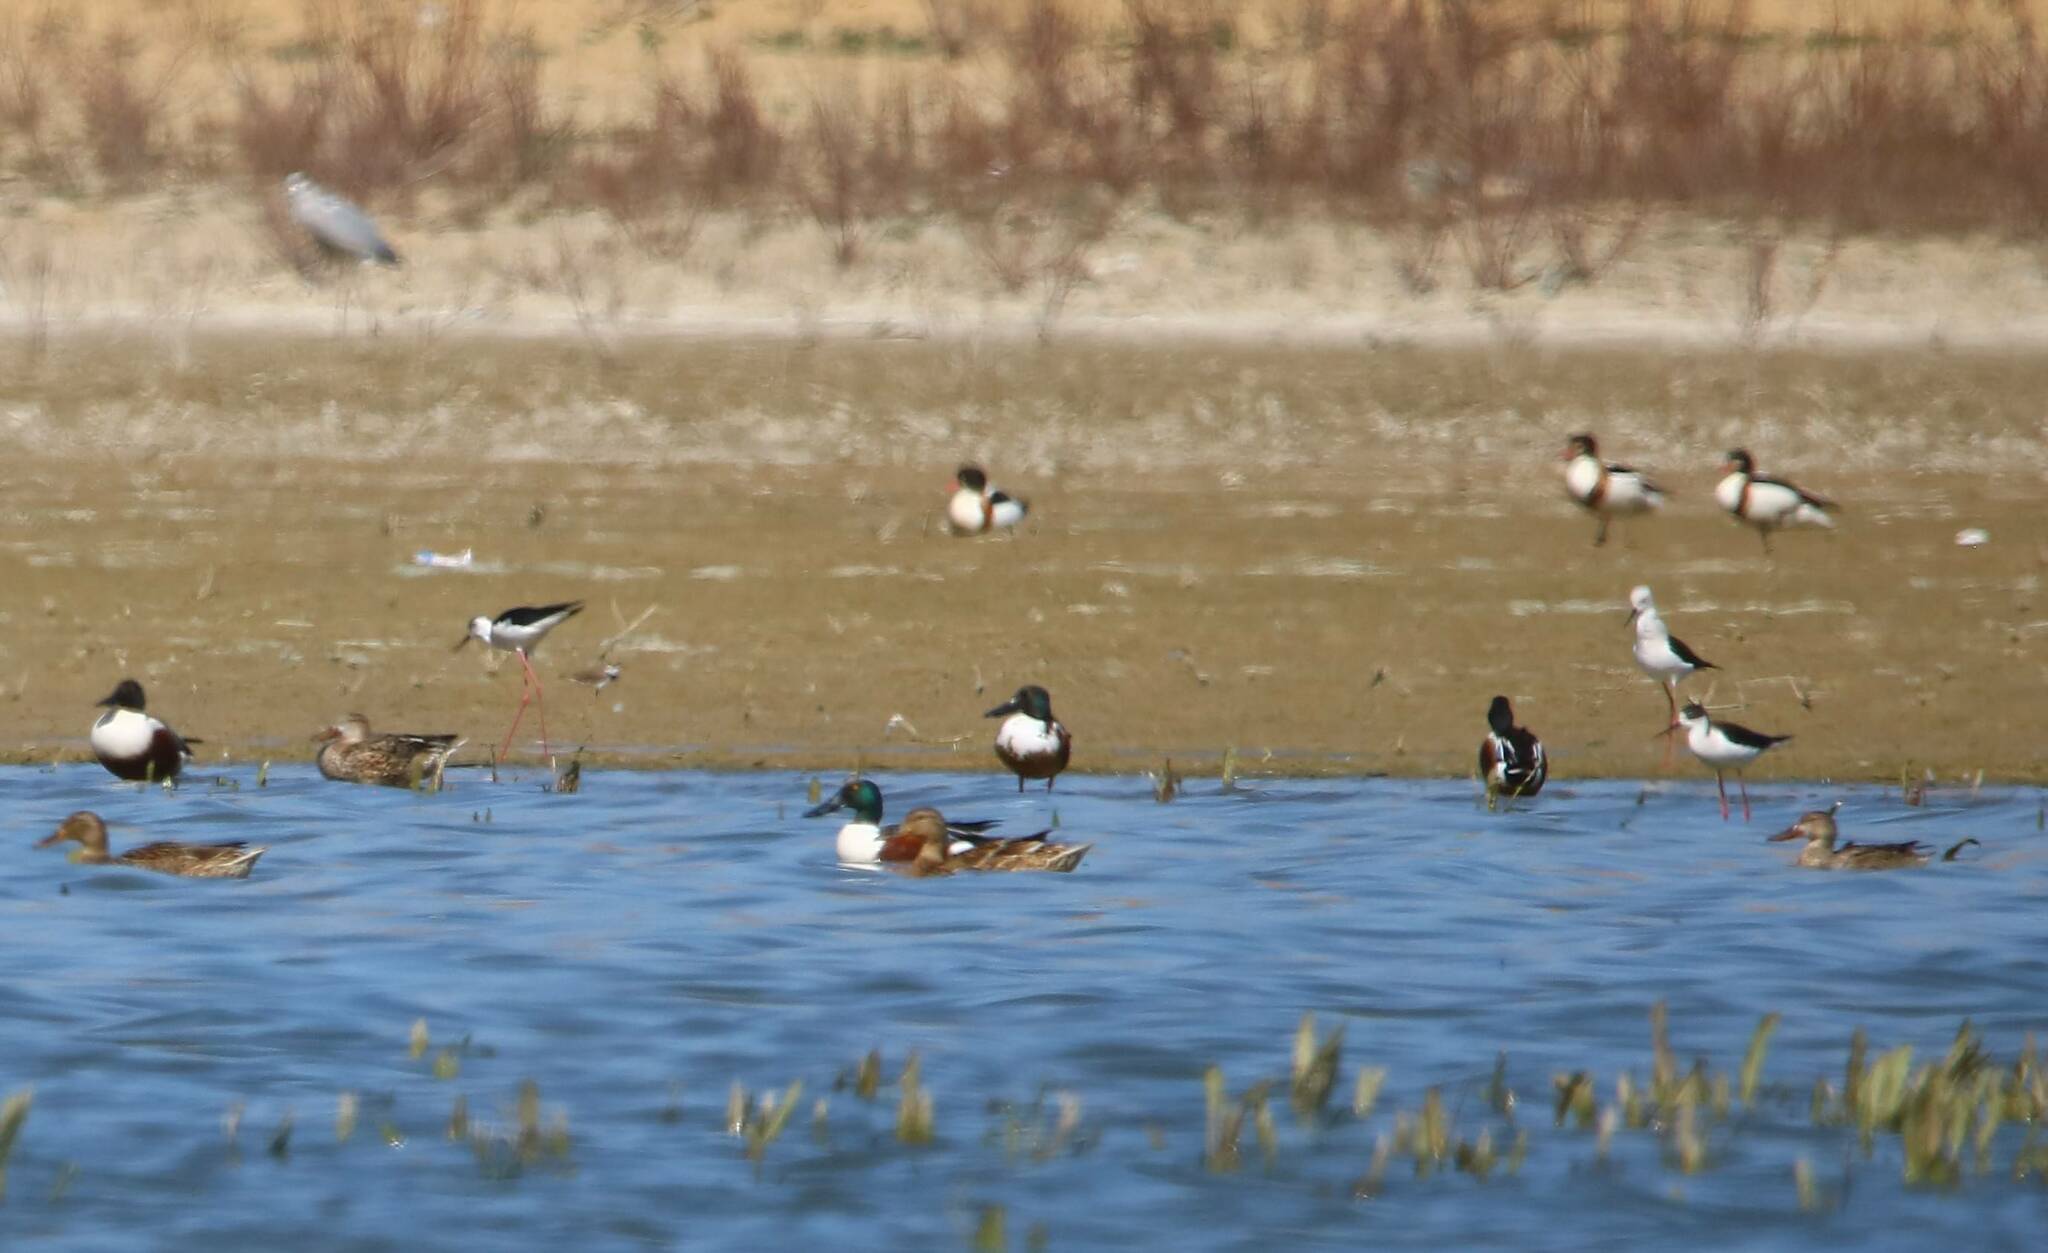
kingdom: Animalia
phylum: Chordata
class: Aves
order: Anseriformes
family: Anatidae
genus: Spatula
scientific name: Spatula clypeata
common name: Northern shoveler
